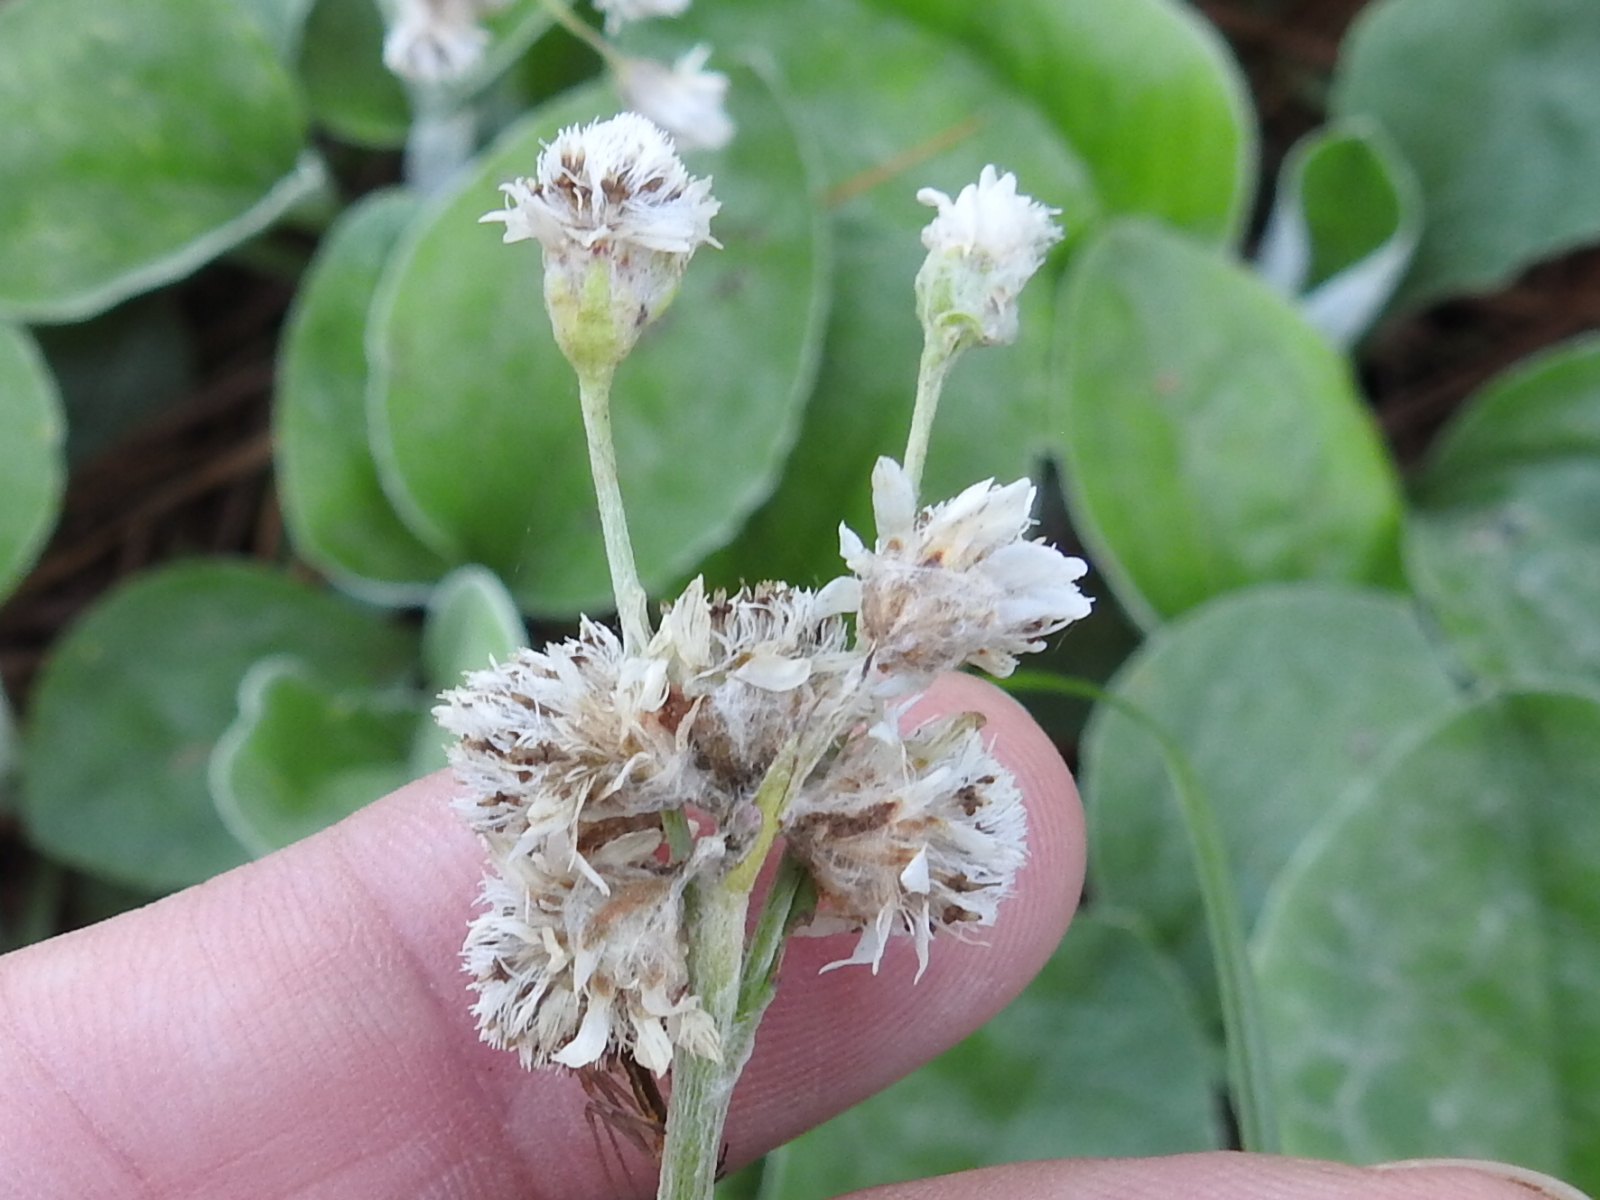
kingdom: Plantae
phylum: Tracheophyta
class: Magnoliopsida
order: Asterales
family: Asteraceae
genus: Antennaria
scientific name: Antennaria parlinii
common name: Parlin's pussytoes
